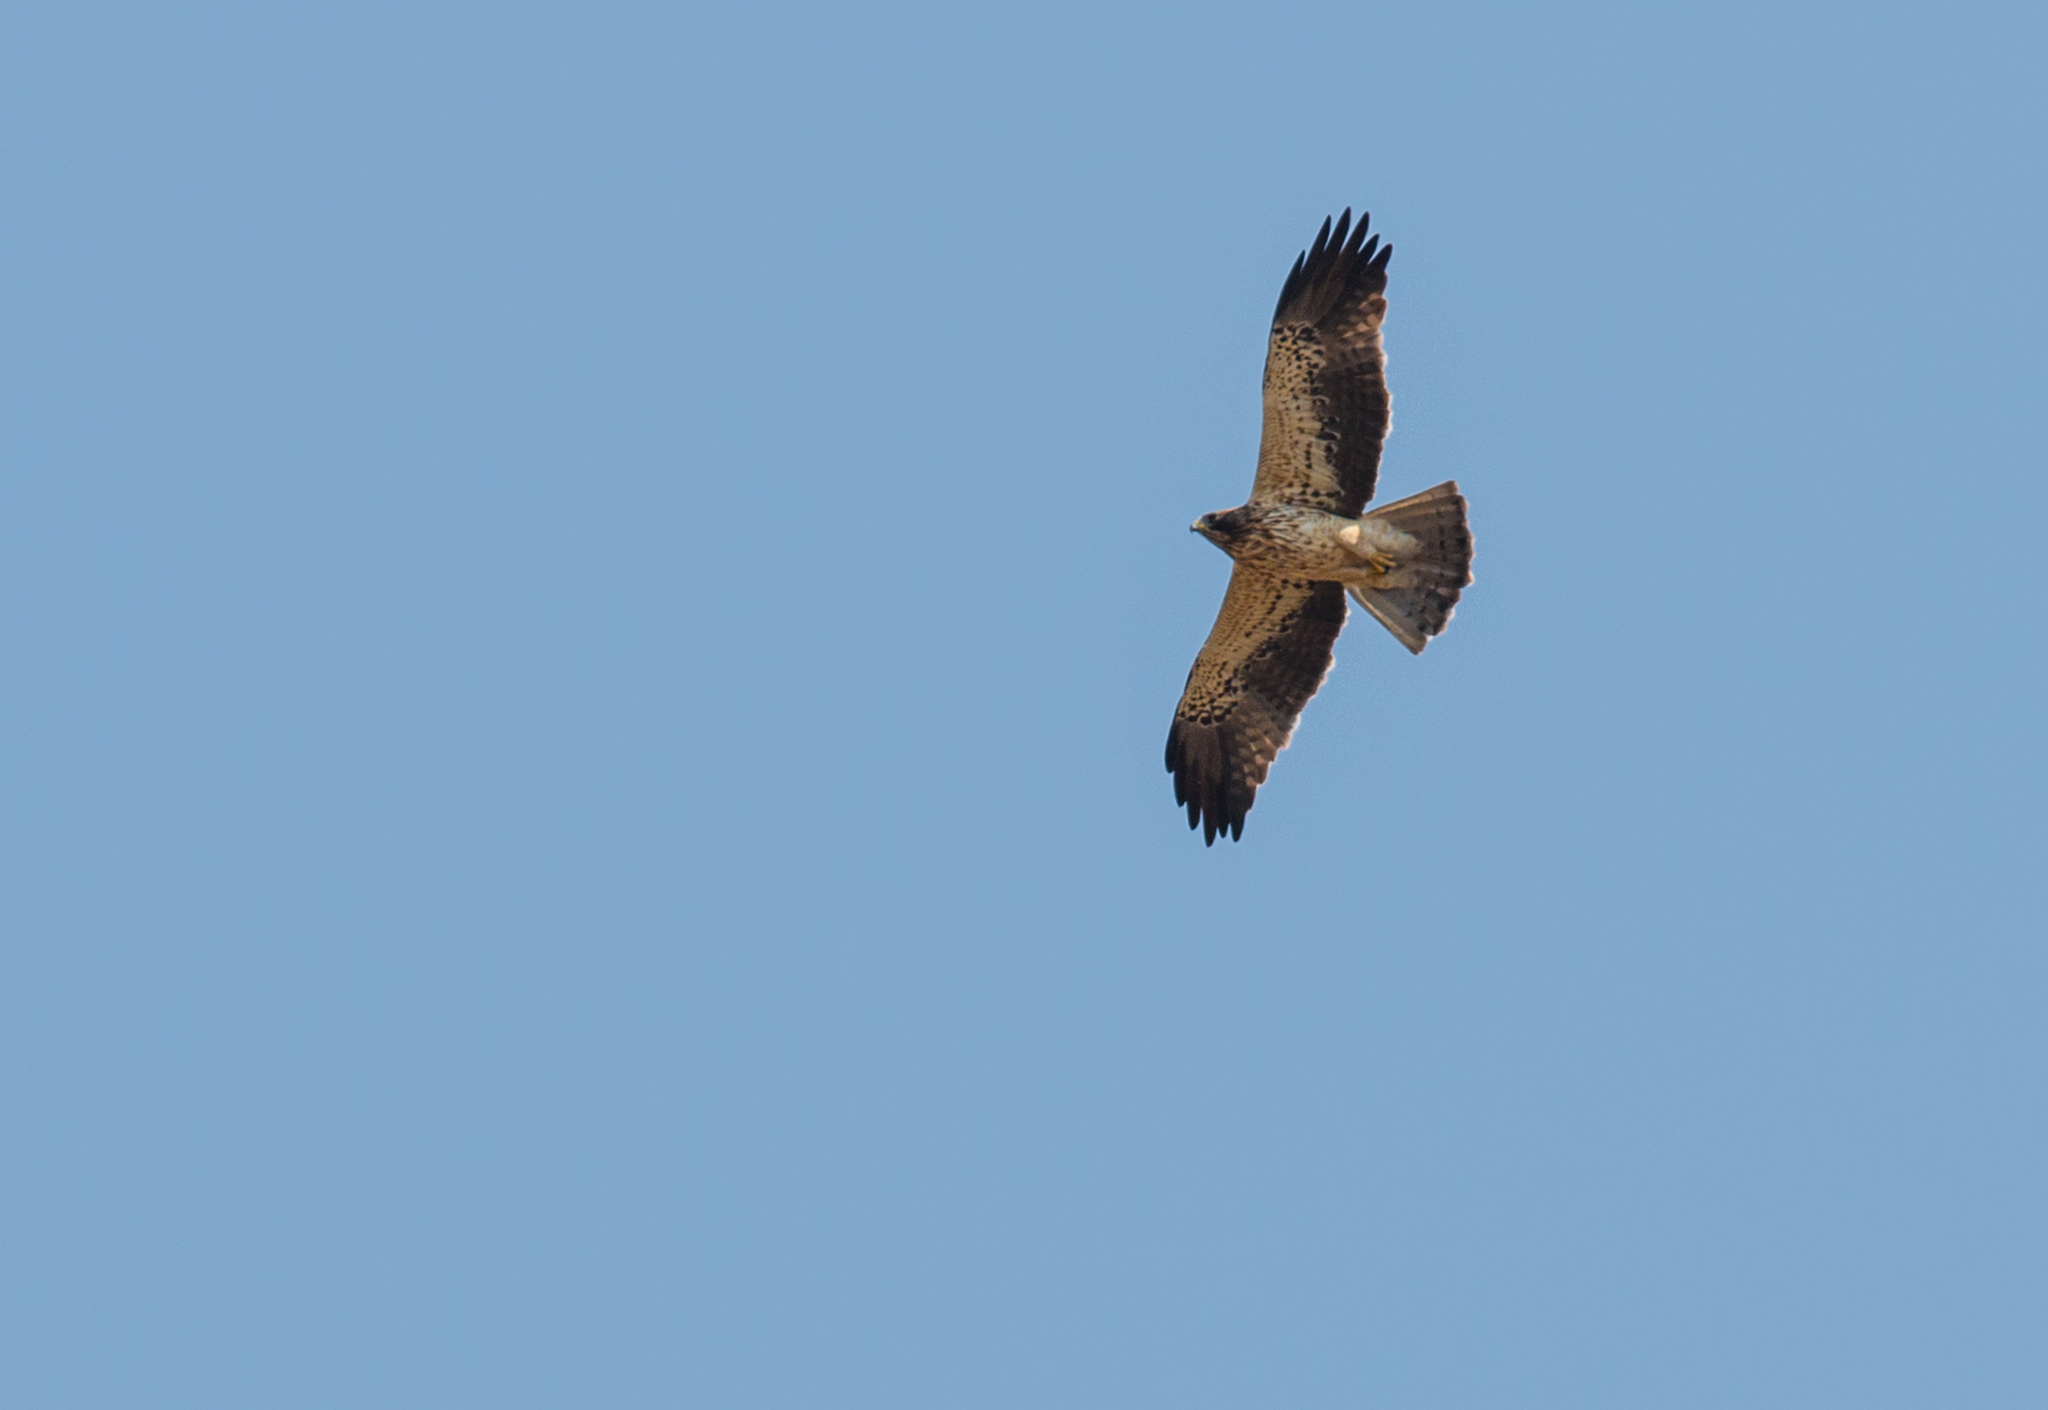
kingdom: Animalia
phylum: Chordata
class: Aves
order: Accipitriformes
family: Accipitridae
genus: Hieraaetus
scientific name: Hieraaetus pennatus
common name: Booted eagle
